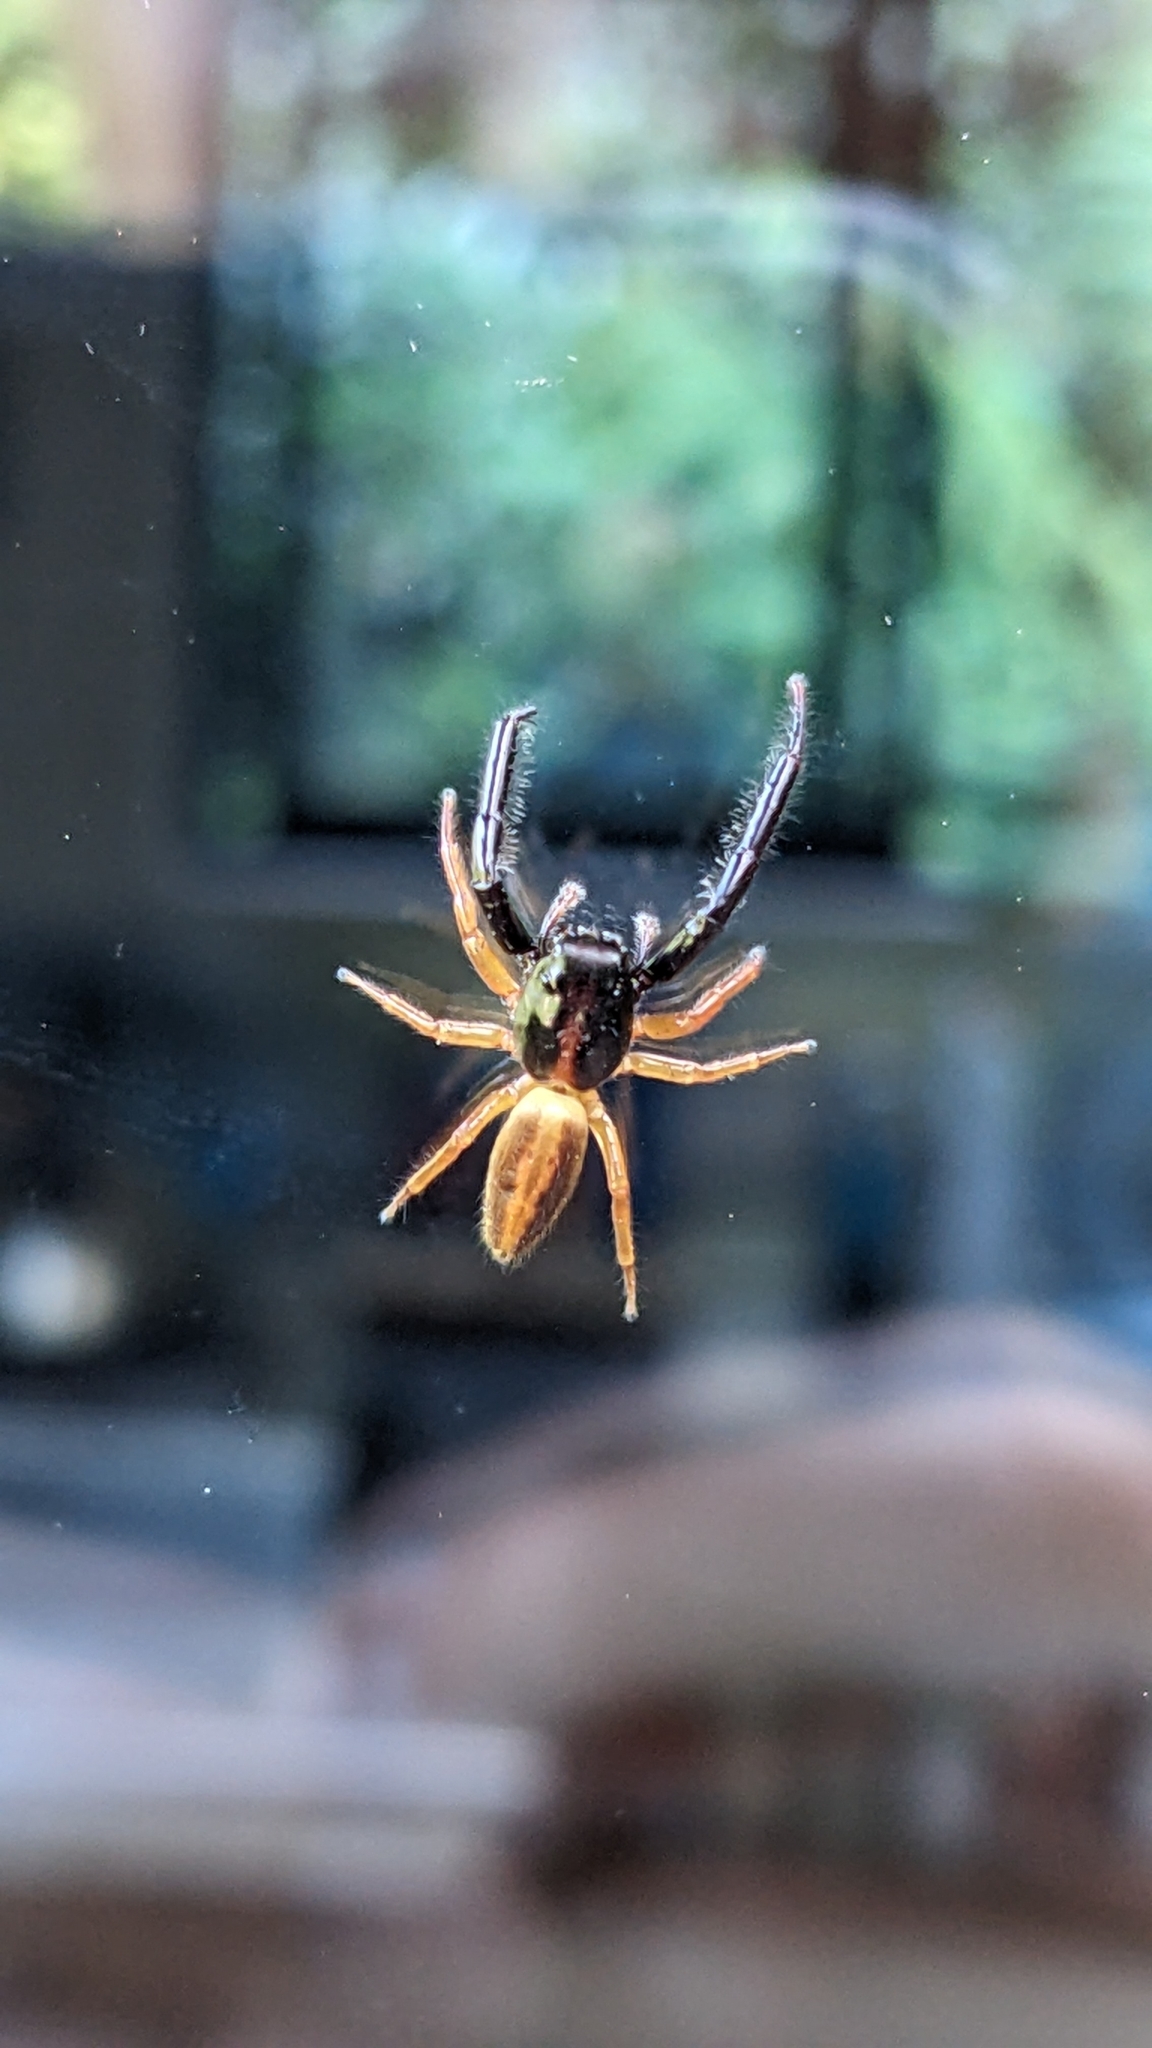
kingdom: Animalia
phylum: Arthropoda
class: Arachnida
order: Araneae
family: Salticidae
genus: Trite
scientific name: Trite planiceps
